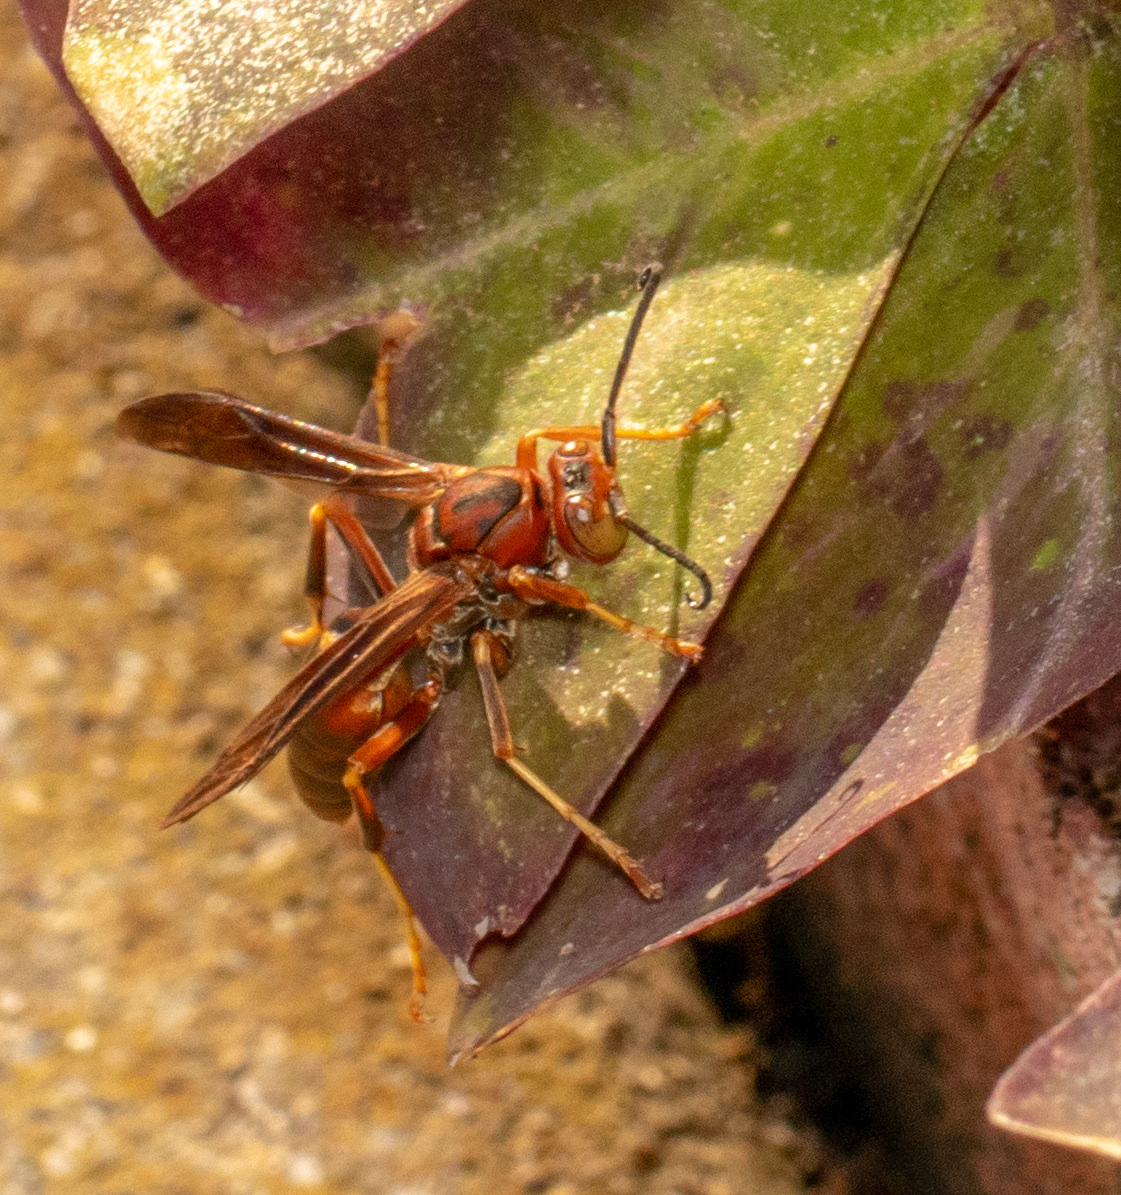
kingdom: Animalia
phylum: Arthropoda
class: Insecta
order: Hymenoptera
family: Eumenidae
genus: Polistes
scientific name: Polistes metricus
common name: Metric paper wasp
